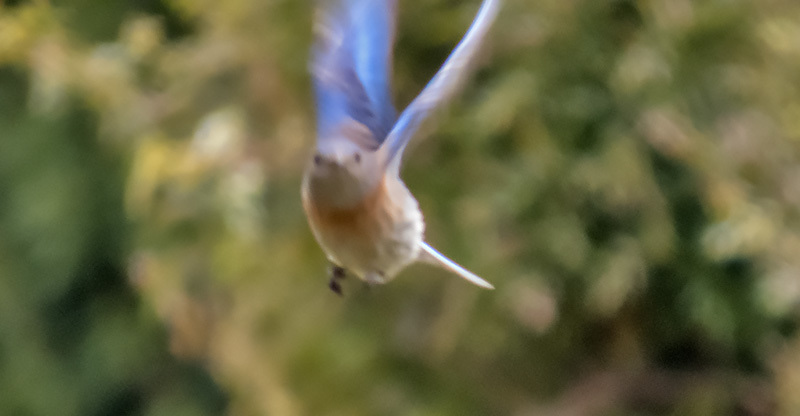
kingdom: Animalia
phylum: Chordata
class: Aves
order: Passeriformes
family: Turdidae
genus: Sialia
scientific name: Sialia mexicana
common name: Western bluebird
